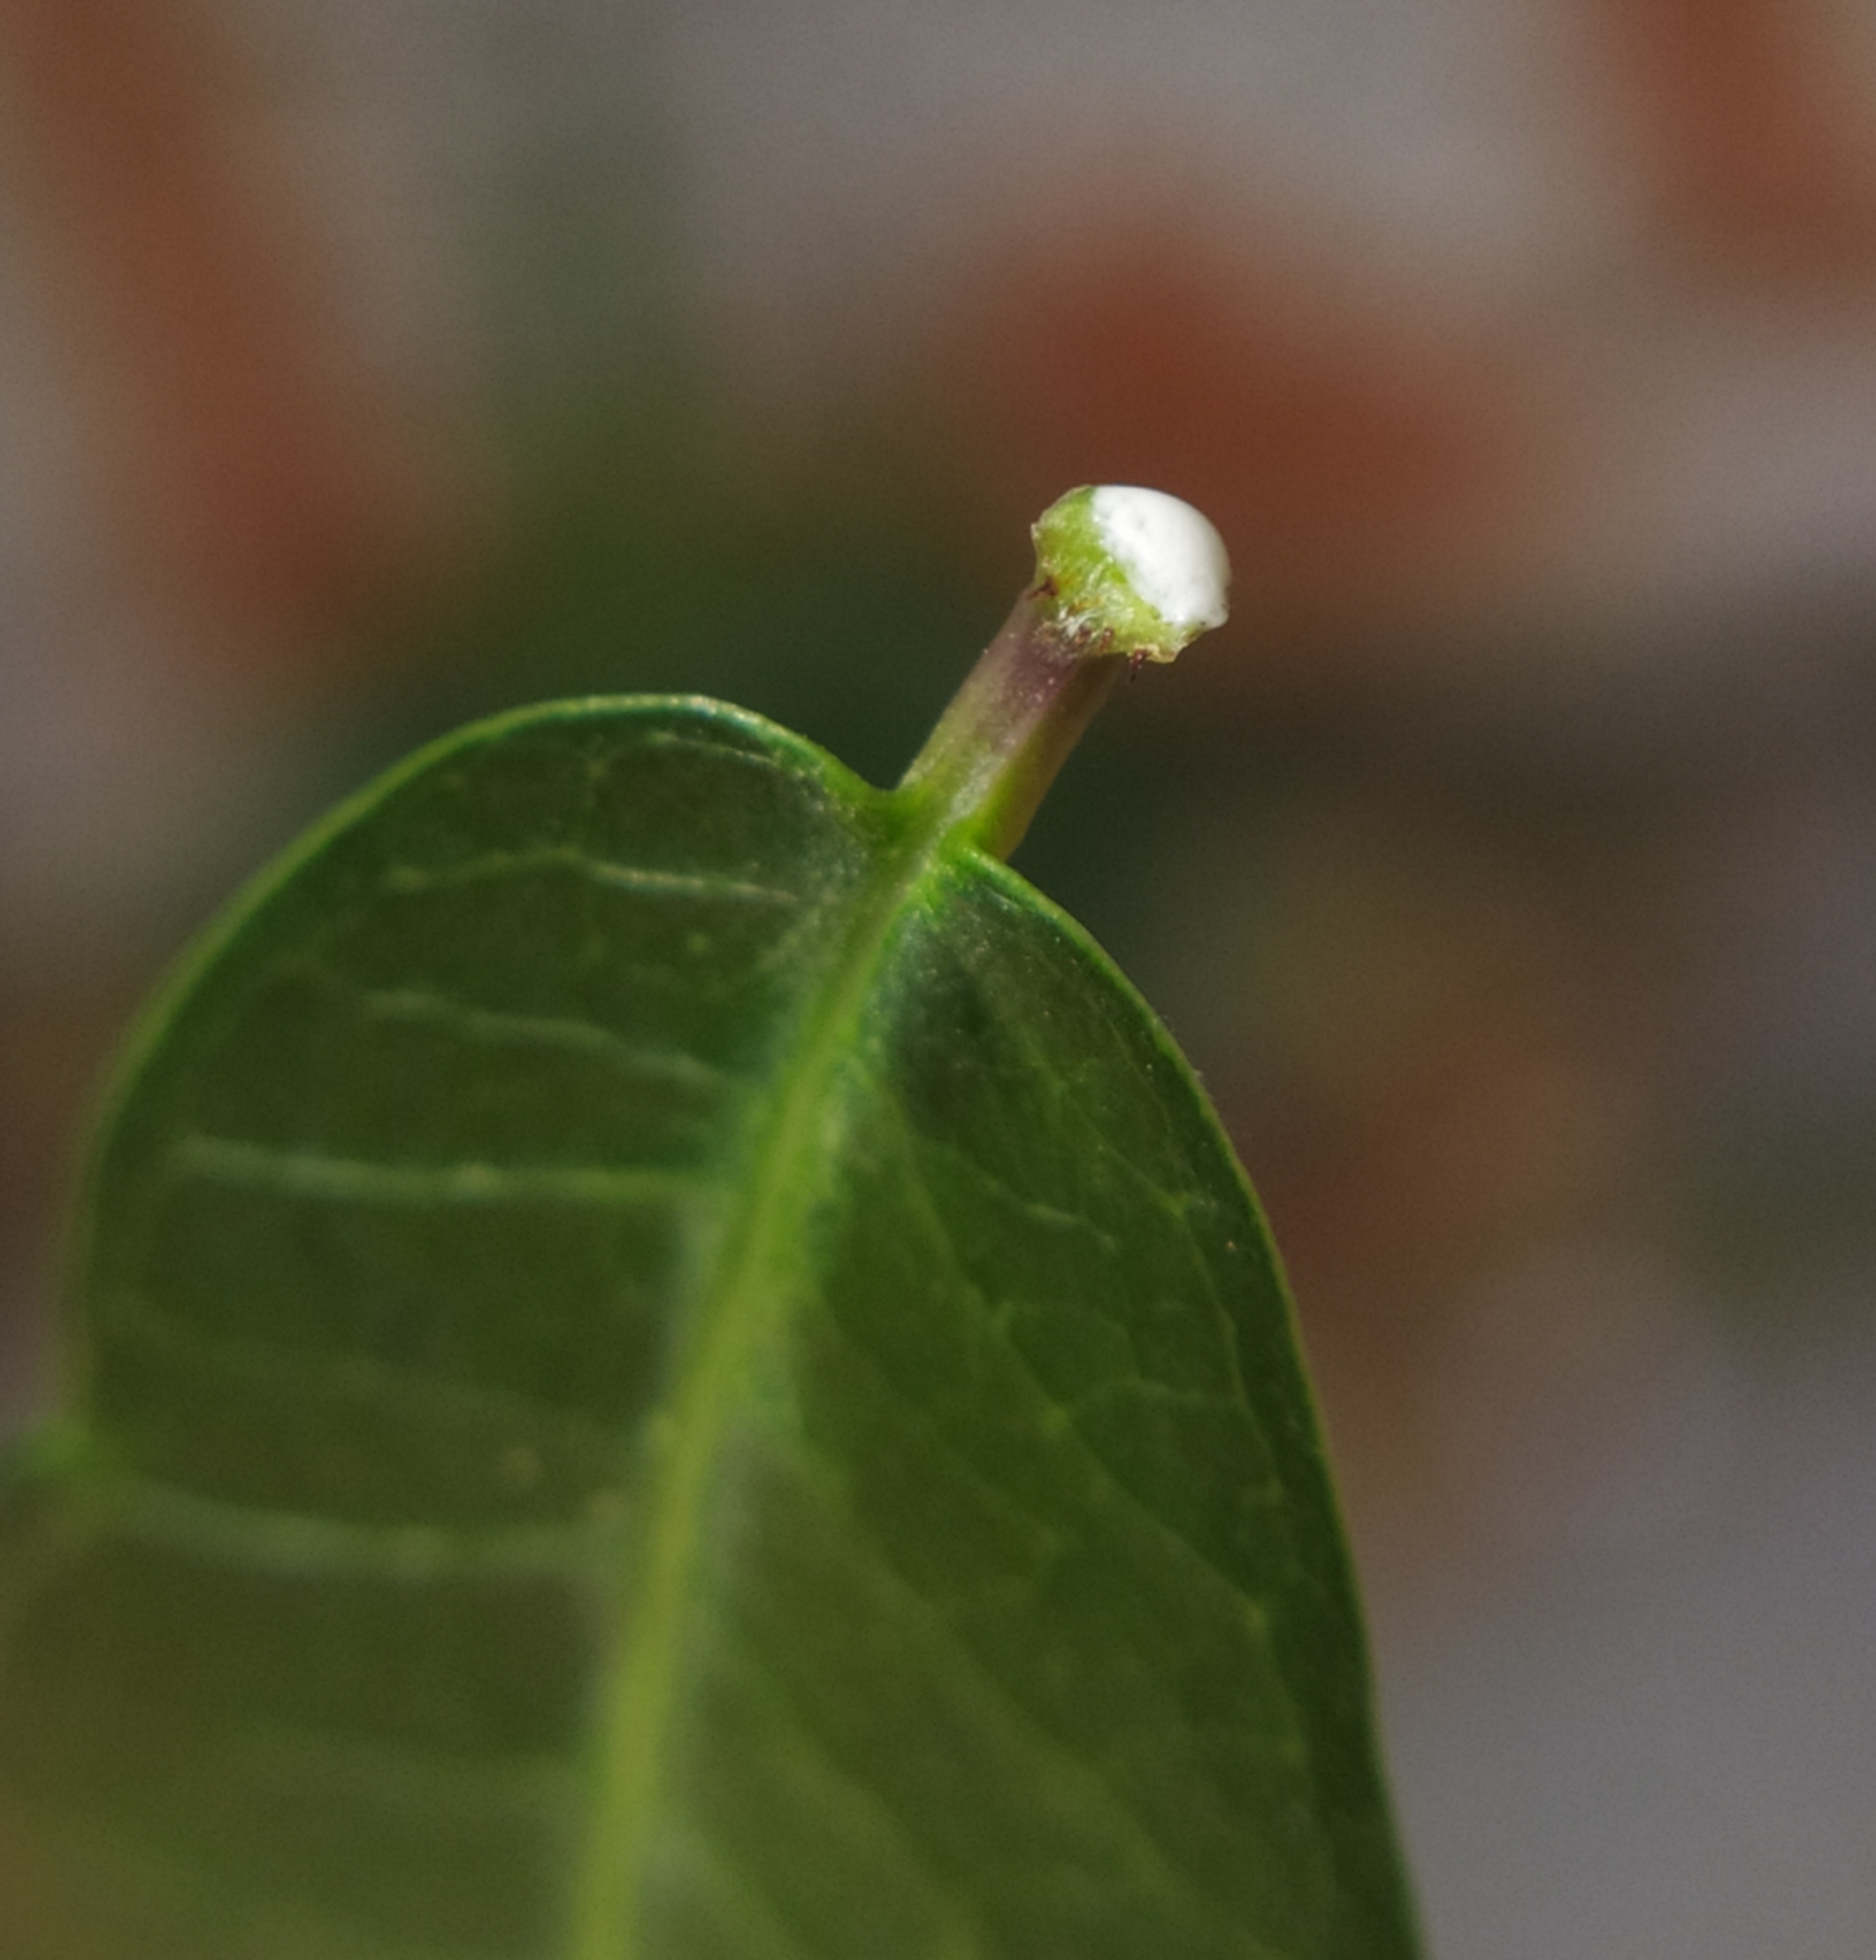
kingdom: Plantae
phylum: Tracheophyta
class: Magnoliopsida
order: Gentianales
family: Apocynaceae
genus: Periploca
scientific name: Periploca graeca
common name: Silkvine
